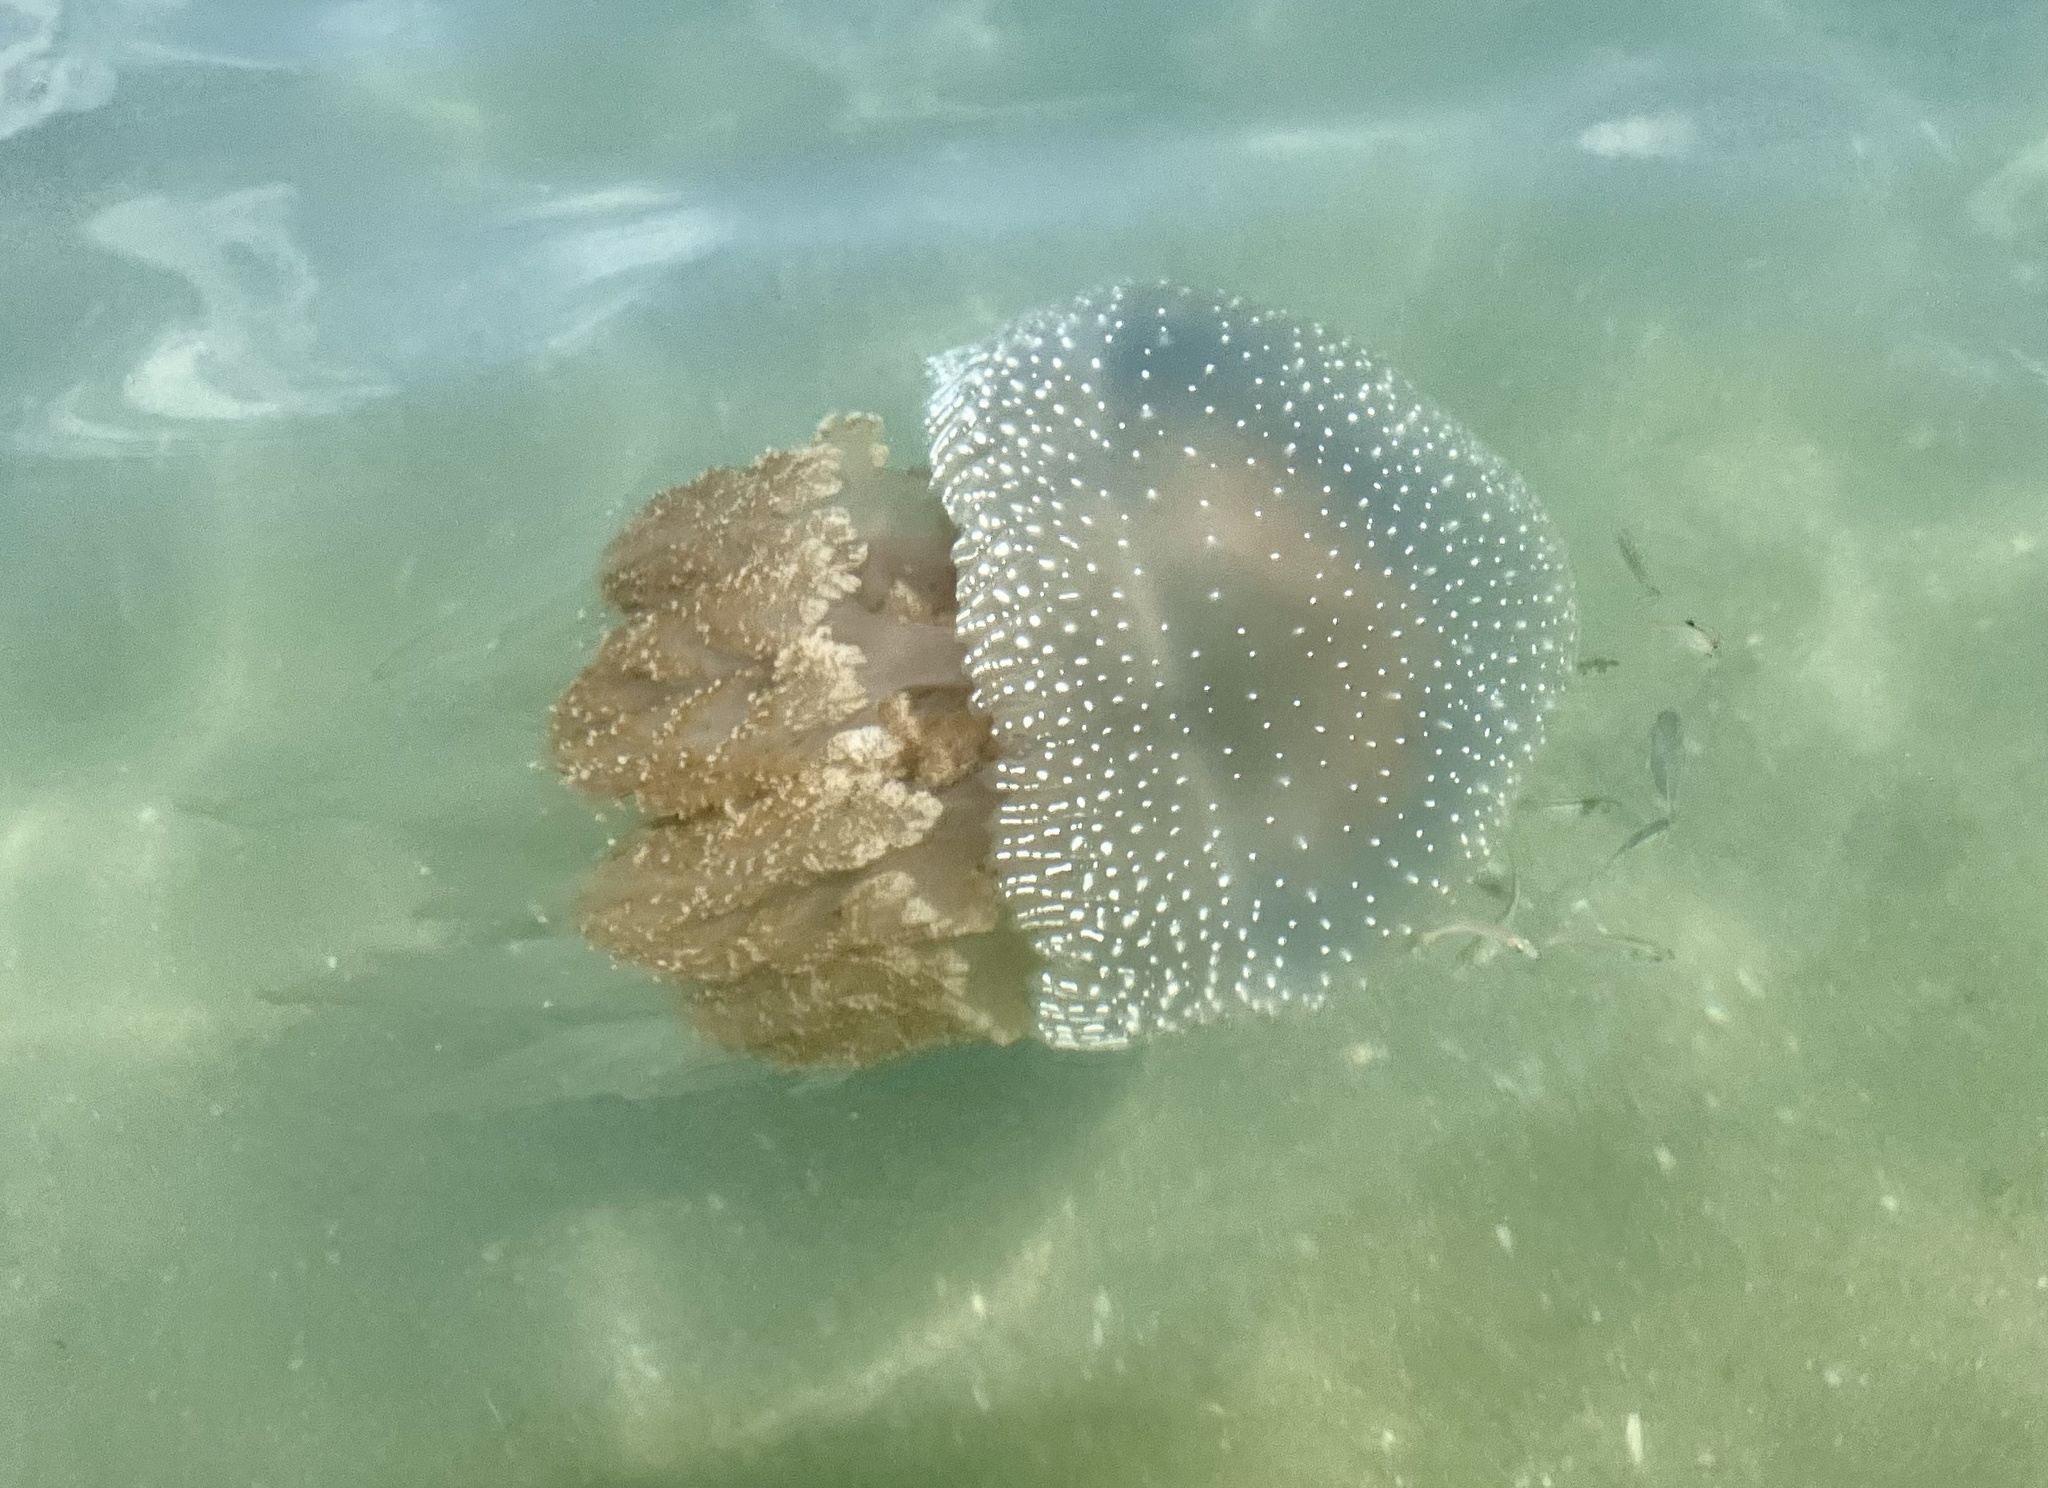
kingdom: Animalia
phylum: Cnidaria
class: Scyphozoa
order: Rhizostomeae
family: Mastigiidae
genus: Phyllorhiza
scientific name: Phyllorhiza punctata
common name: Australian spotted jellyfish
